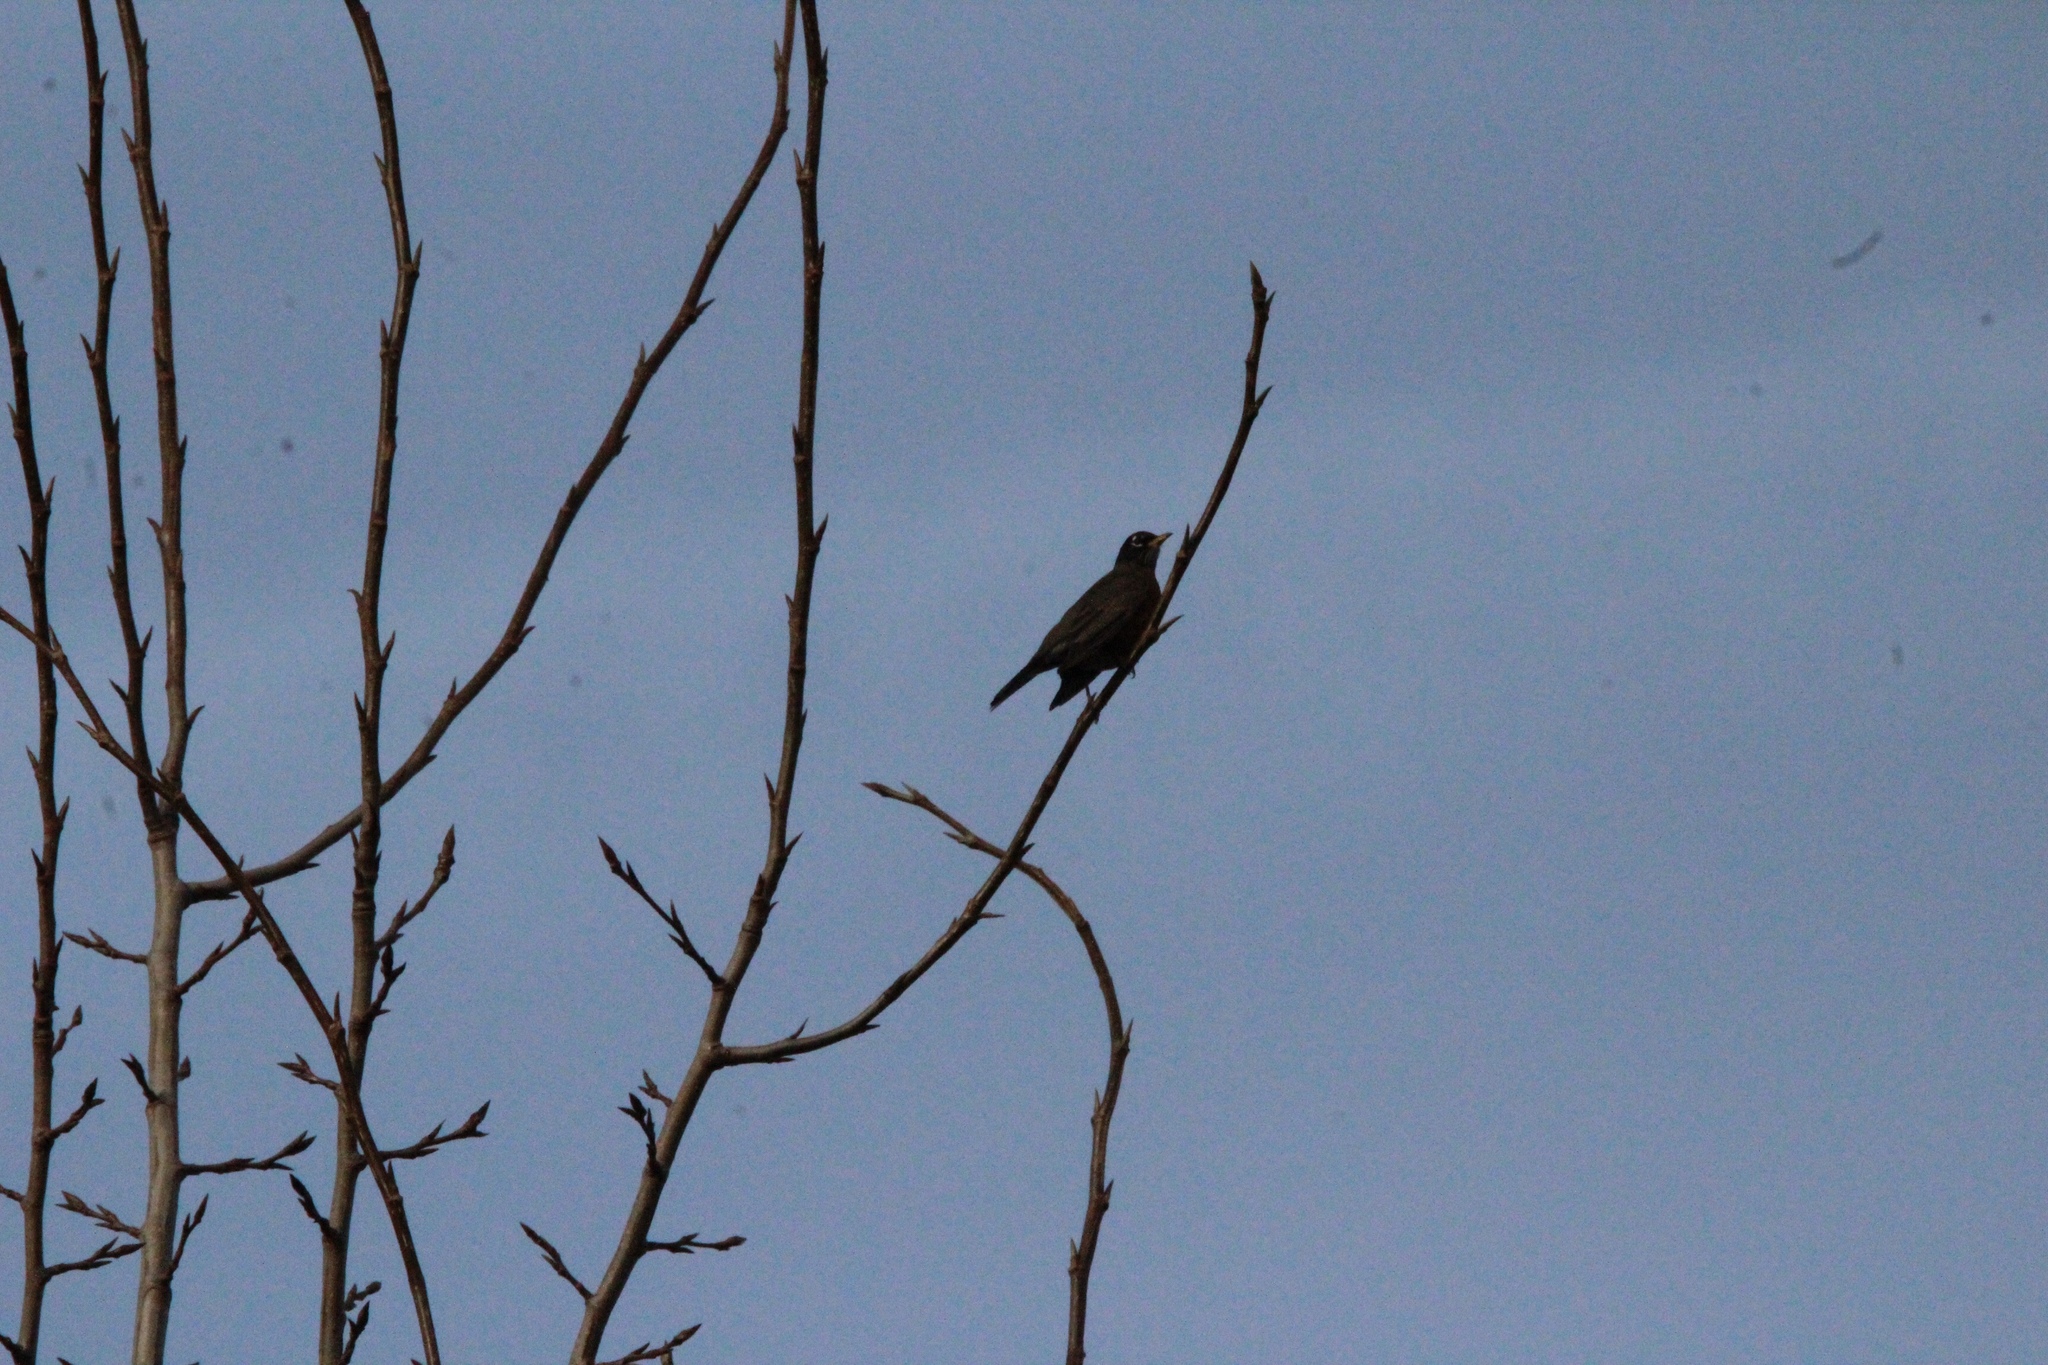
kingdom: Animalia
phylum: Chordata
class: Aves
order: Passeriformes
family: Turdidae
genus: Turdus
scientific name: Turdus migratorius
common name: American robin
